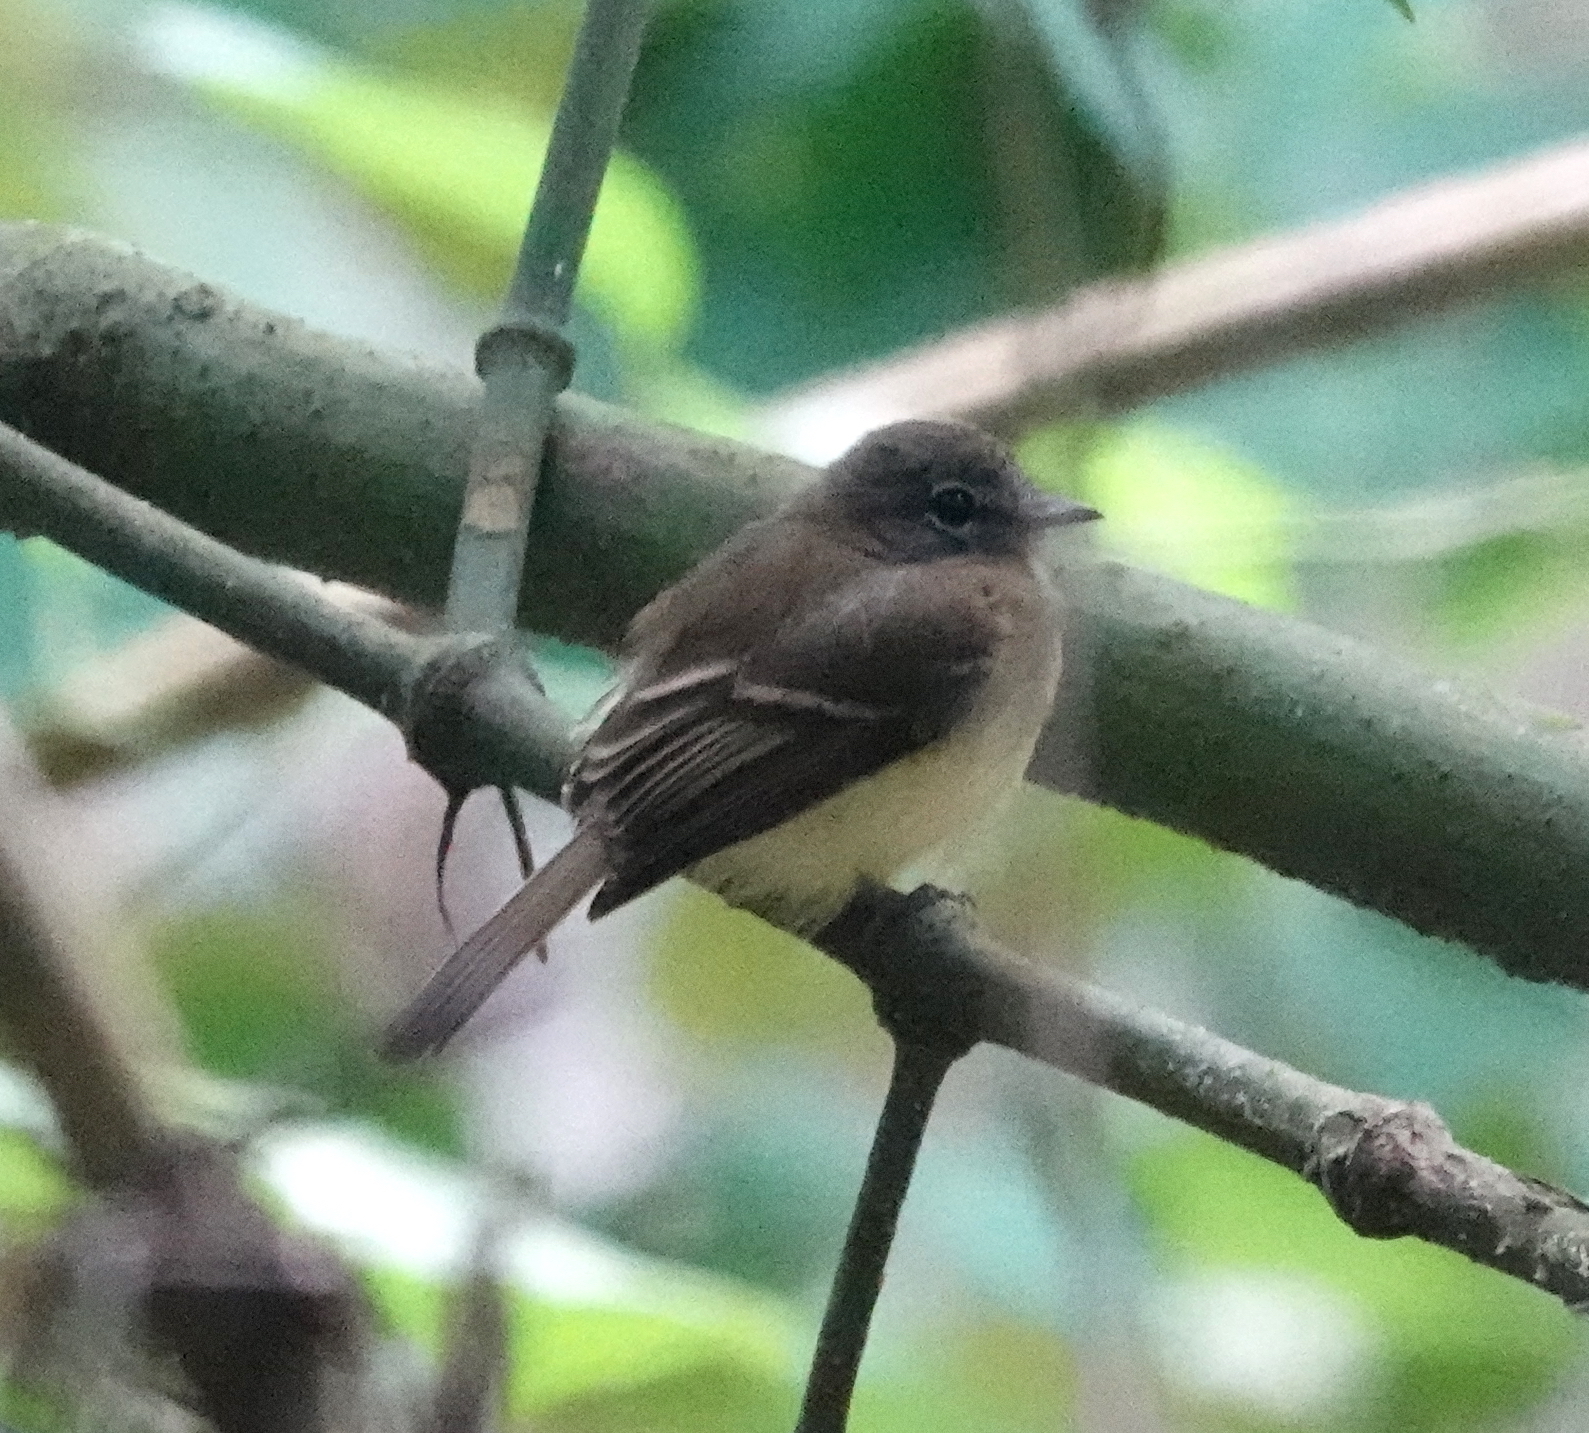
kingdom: Animalia
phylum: Chordata
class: Aves
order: Passeriformes
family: Tyrannidae
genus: Aphanotriccus
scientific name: Aphanotriccus audax
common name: Black-billed flycatcher
